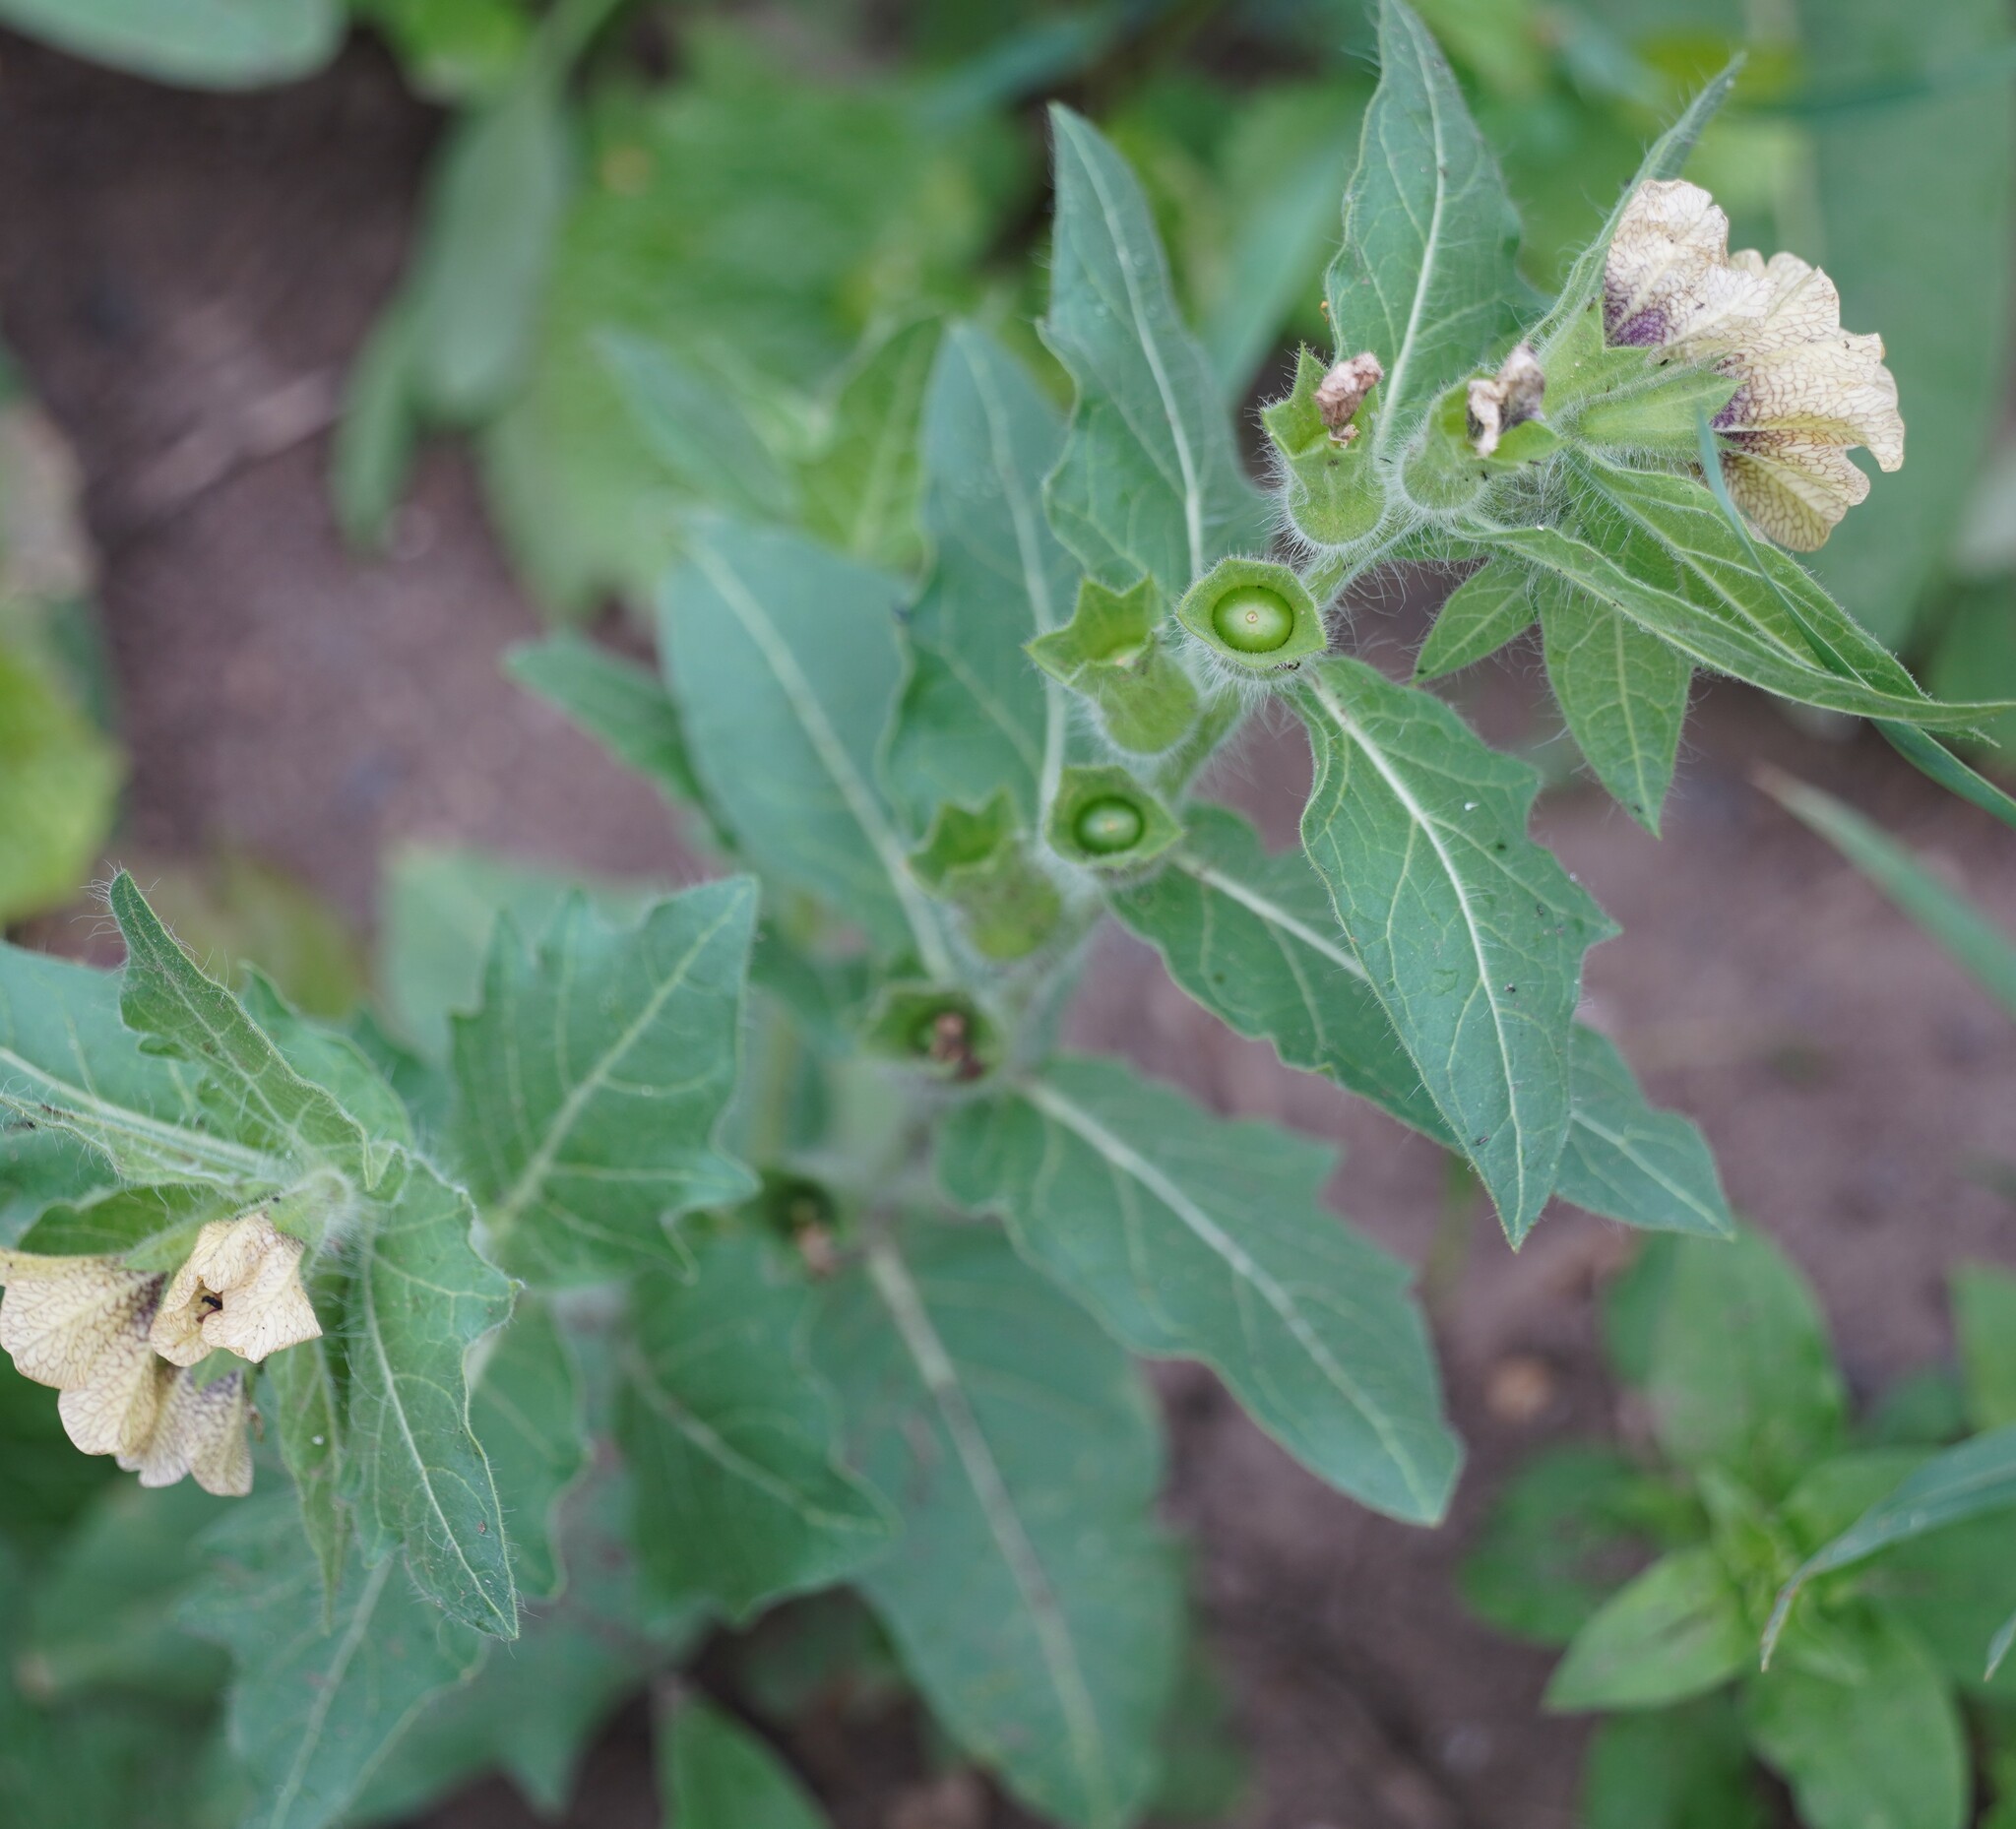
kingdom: Plantae
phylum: Tracheophyta
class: Magnoliopsida
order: Solanales
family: Solanaceae
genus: Hyoscyamus
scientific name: Hyoscyamus niger
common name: Henbane
